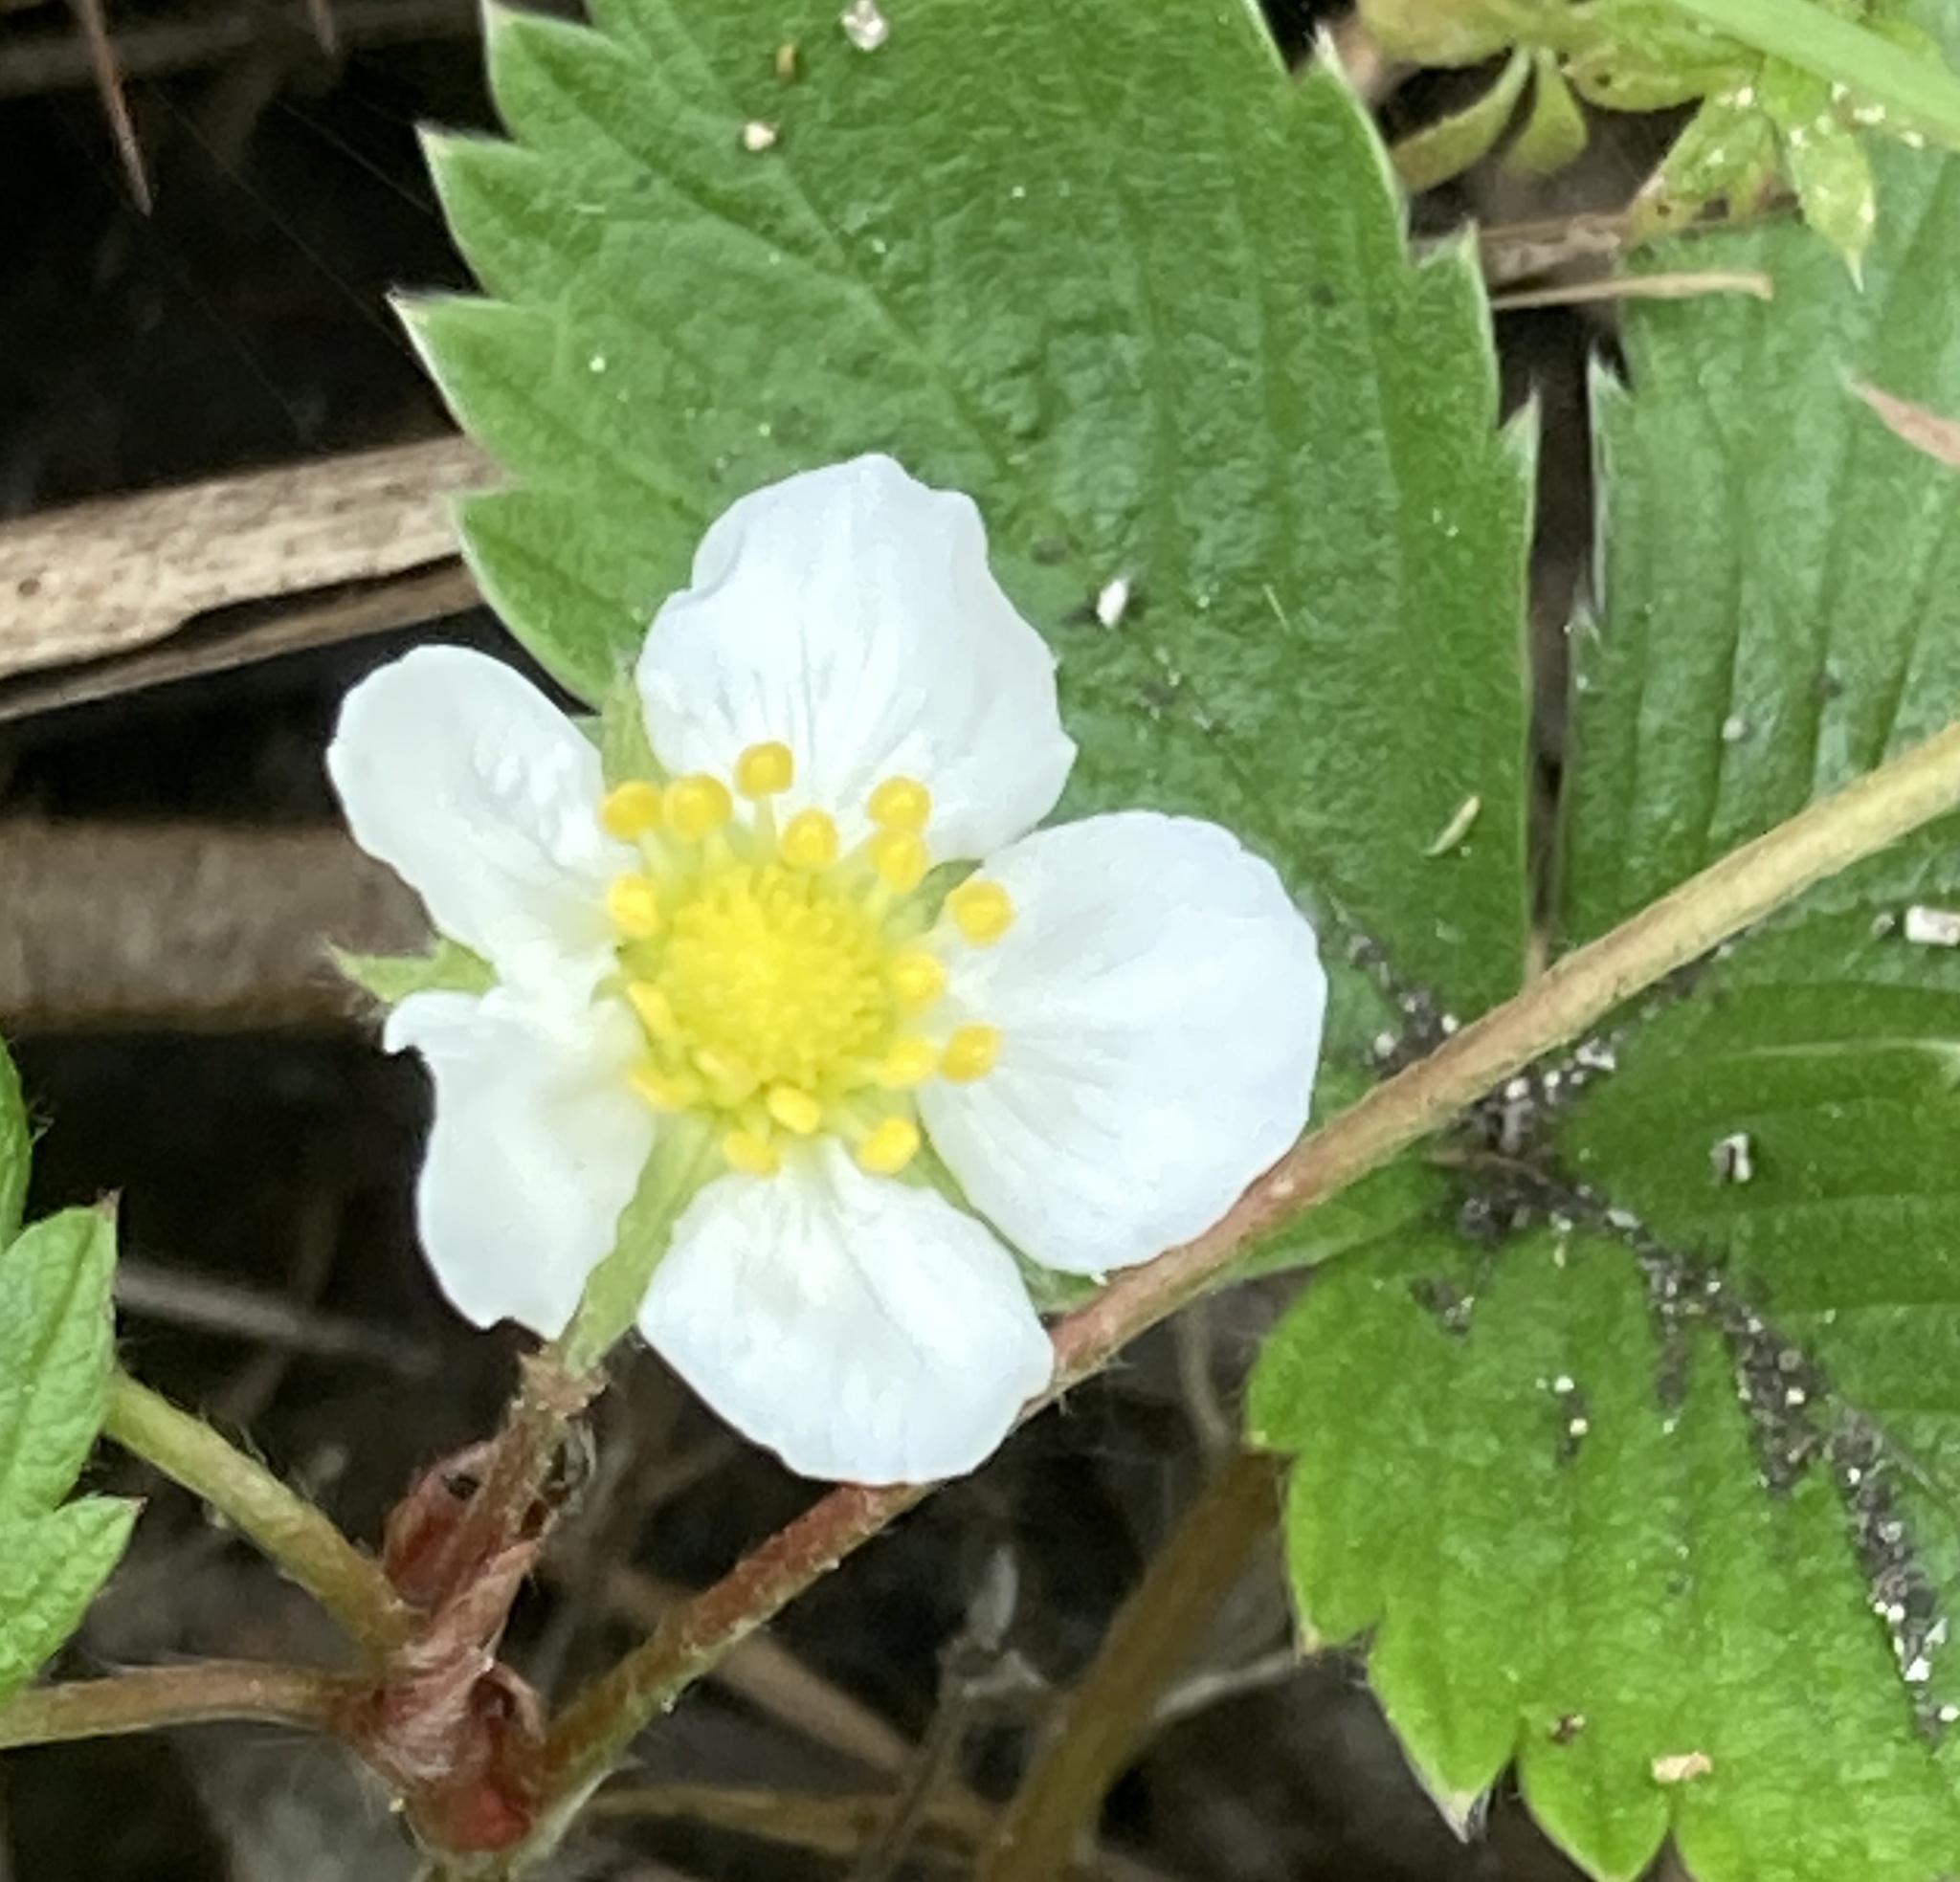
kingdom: Plantae
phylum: Tracheophyta
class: Magnoliopsida
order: Rosales
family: Rosaceae
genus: Fragaria
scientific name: Fragaria vesca
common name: Wild strawberry
